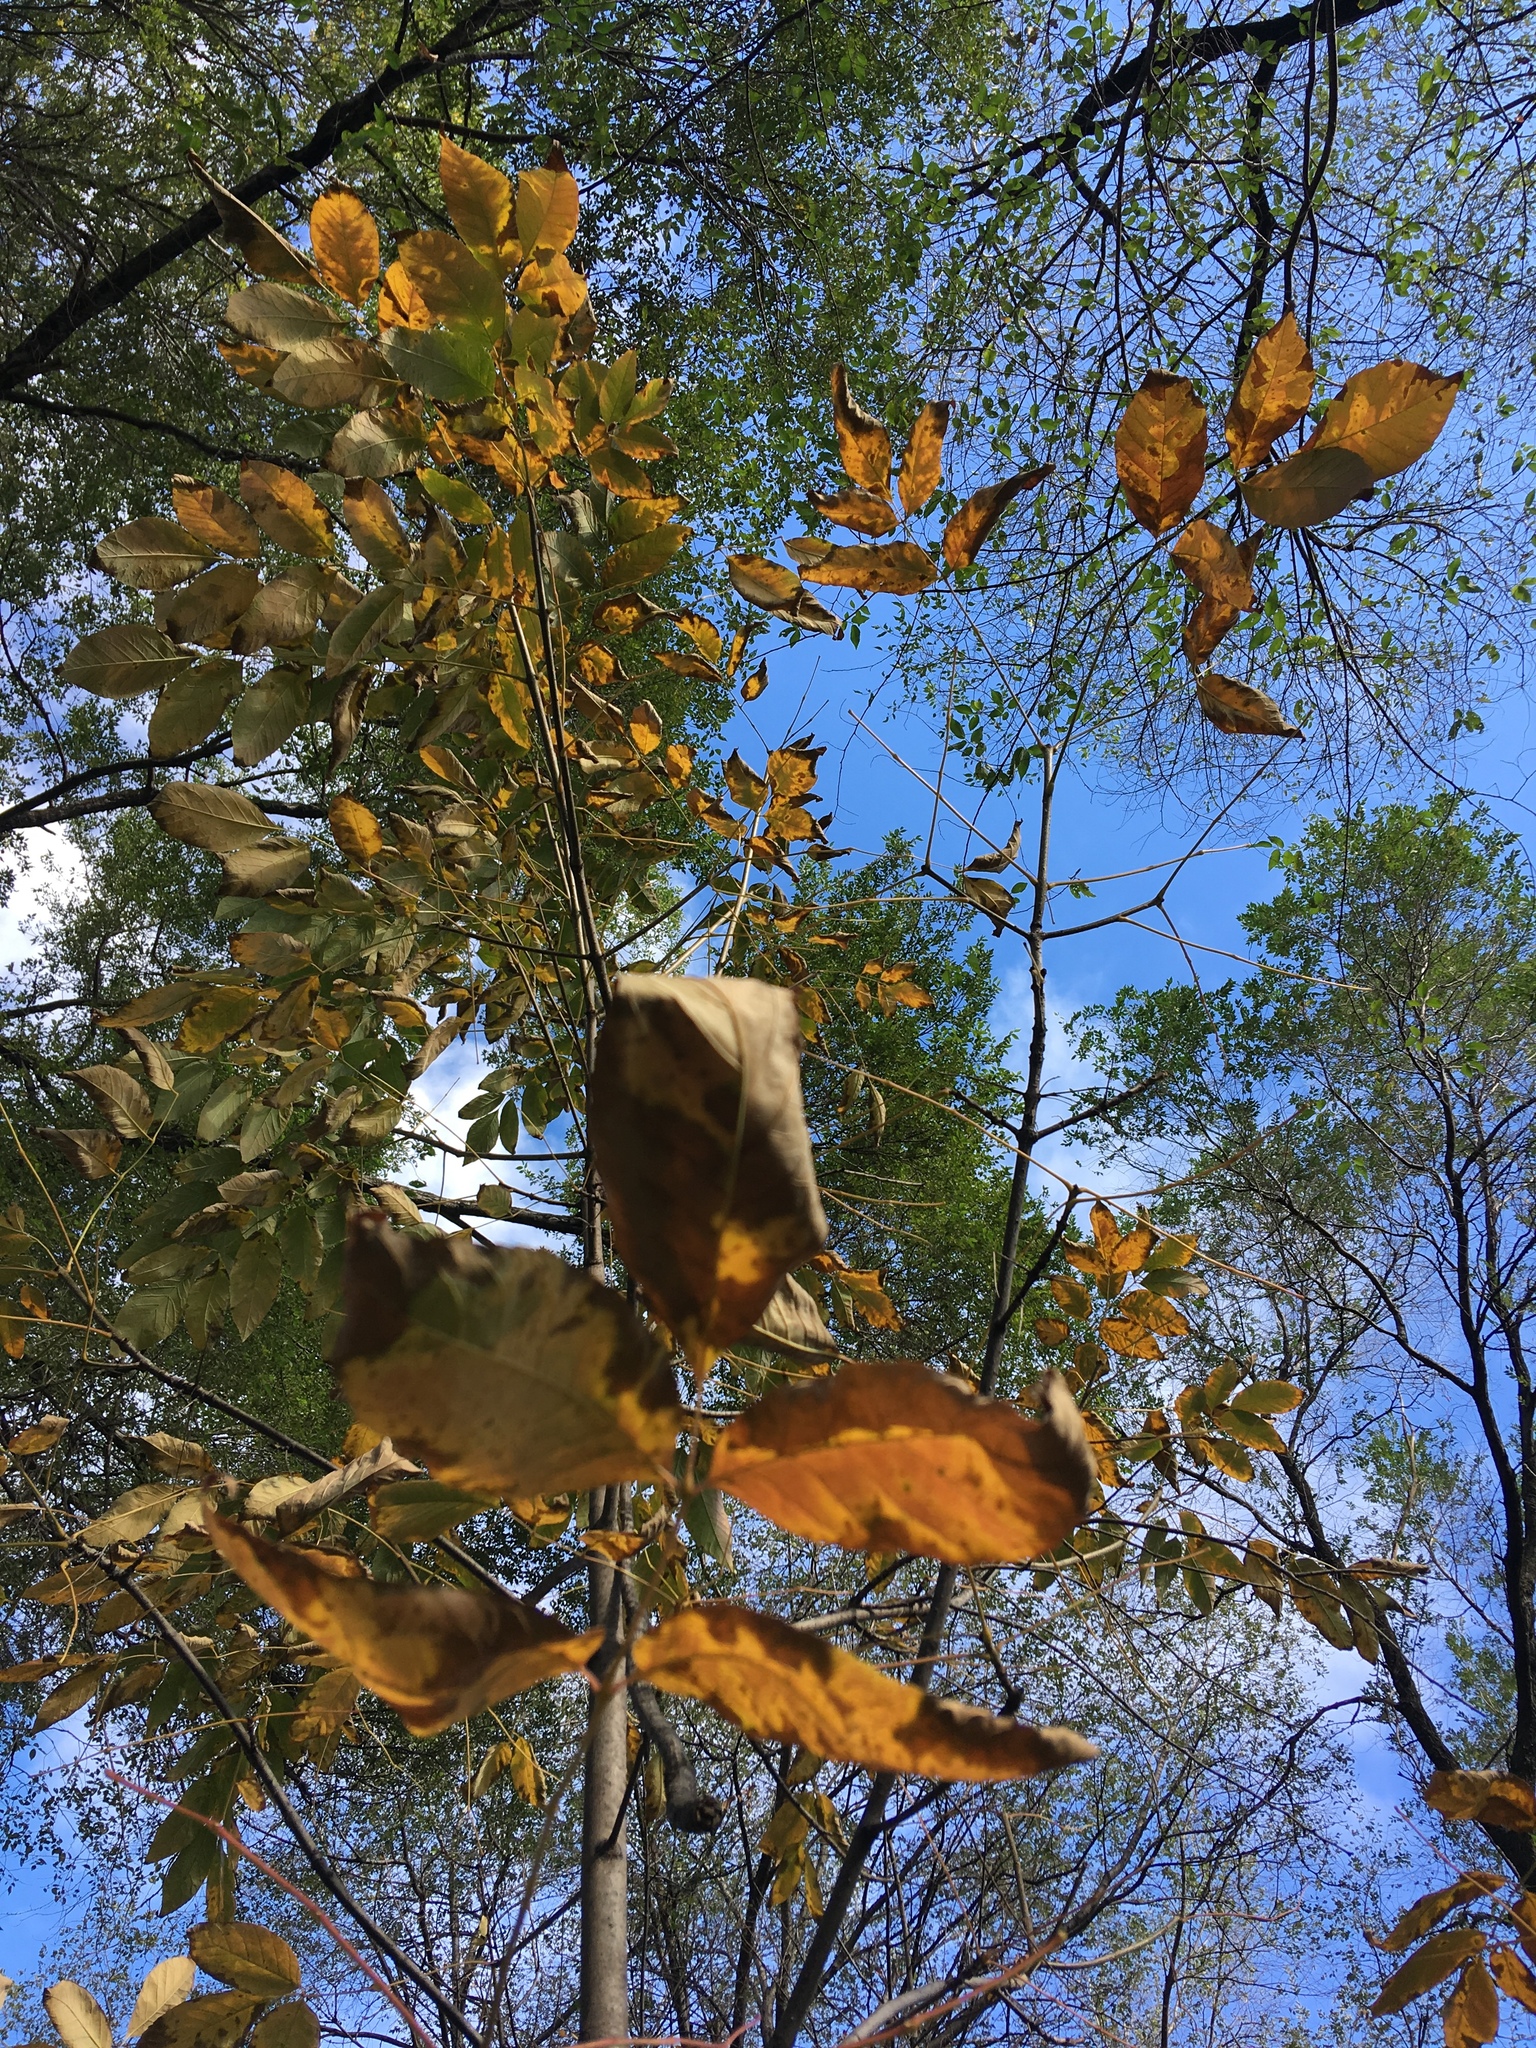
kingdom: Plantae
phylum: Tracheophyta
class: Magnoliopsida
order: Lamiales
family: Oleaceae
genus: Fraxinus
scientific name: Fraxinus americana
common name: White ash
